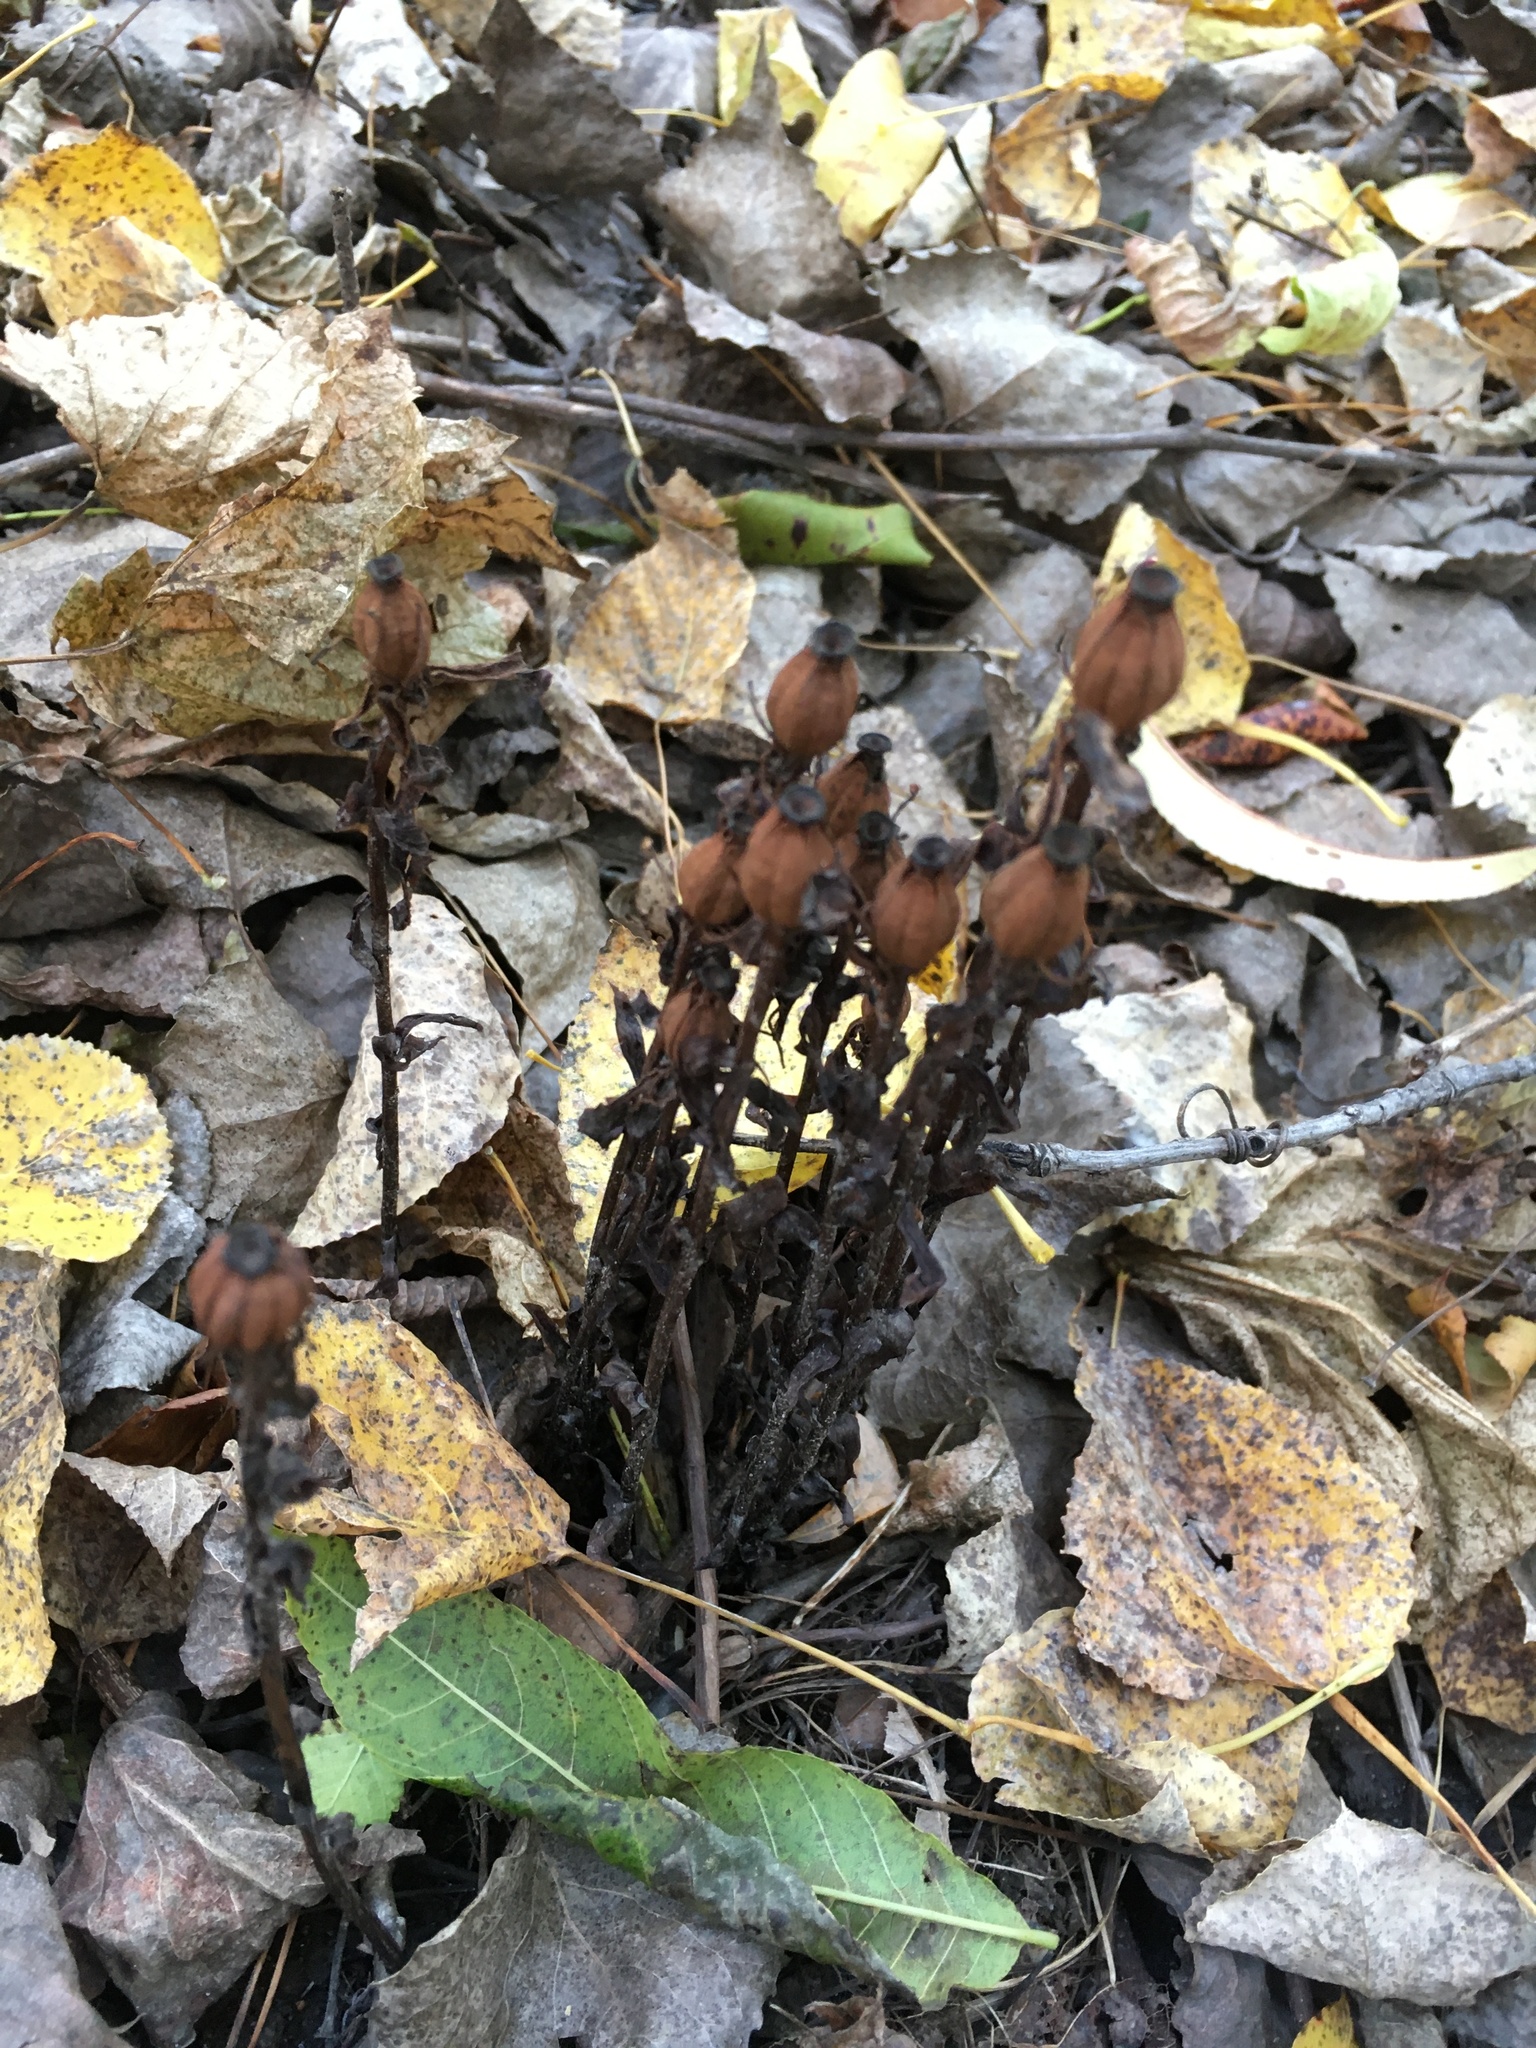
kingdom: Plantae
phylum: Tracheophyta
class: Magnoliopsida
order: Ericales
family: Ericaceae
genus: Monotropa
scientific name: Monotropa uniflora
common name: Convulsion root
